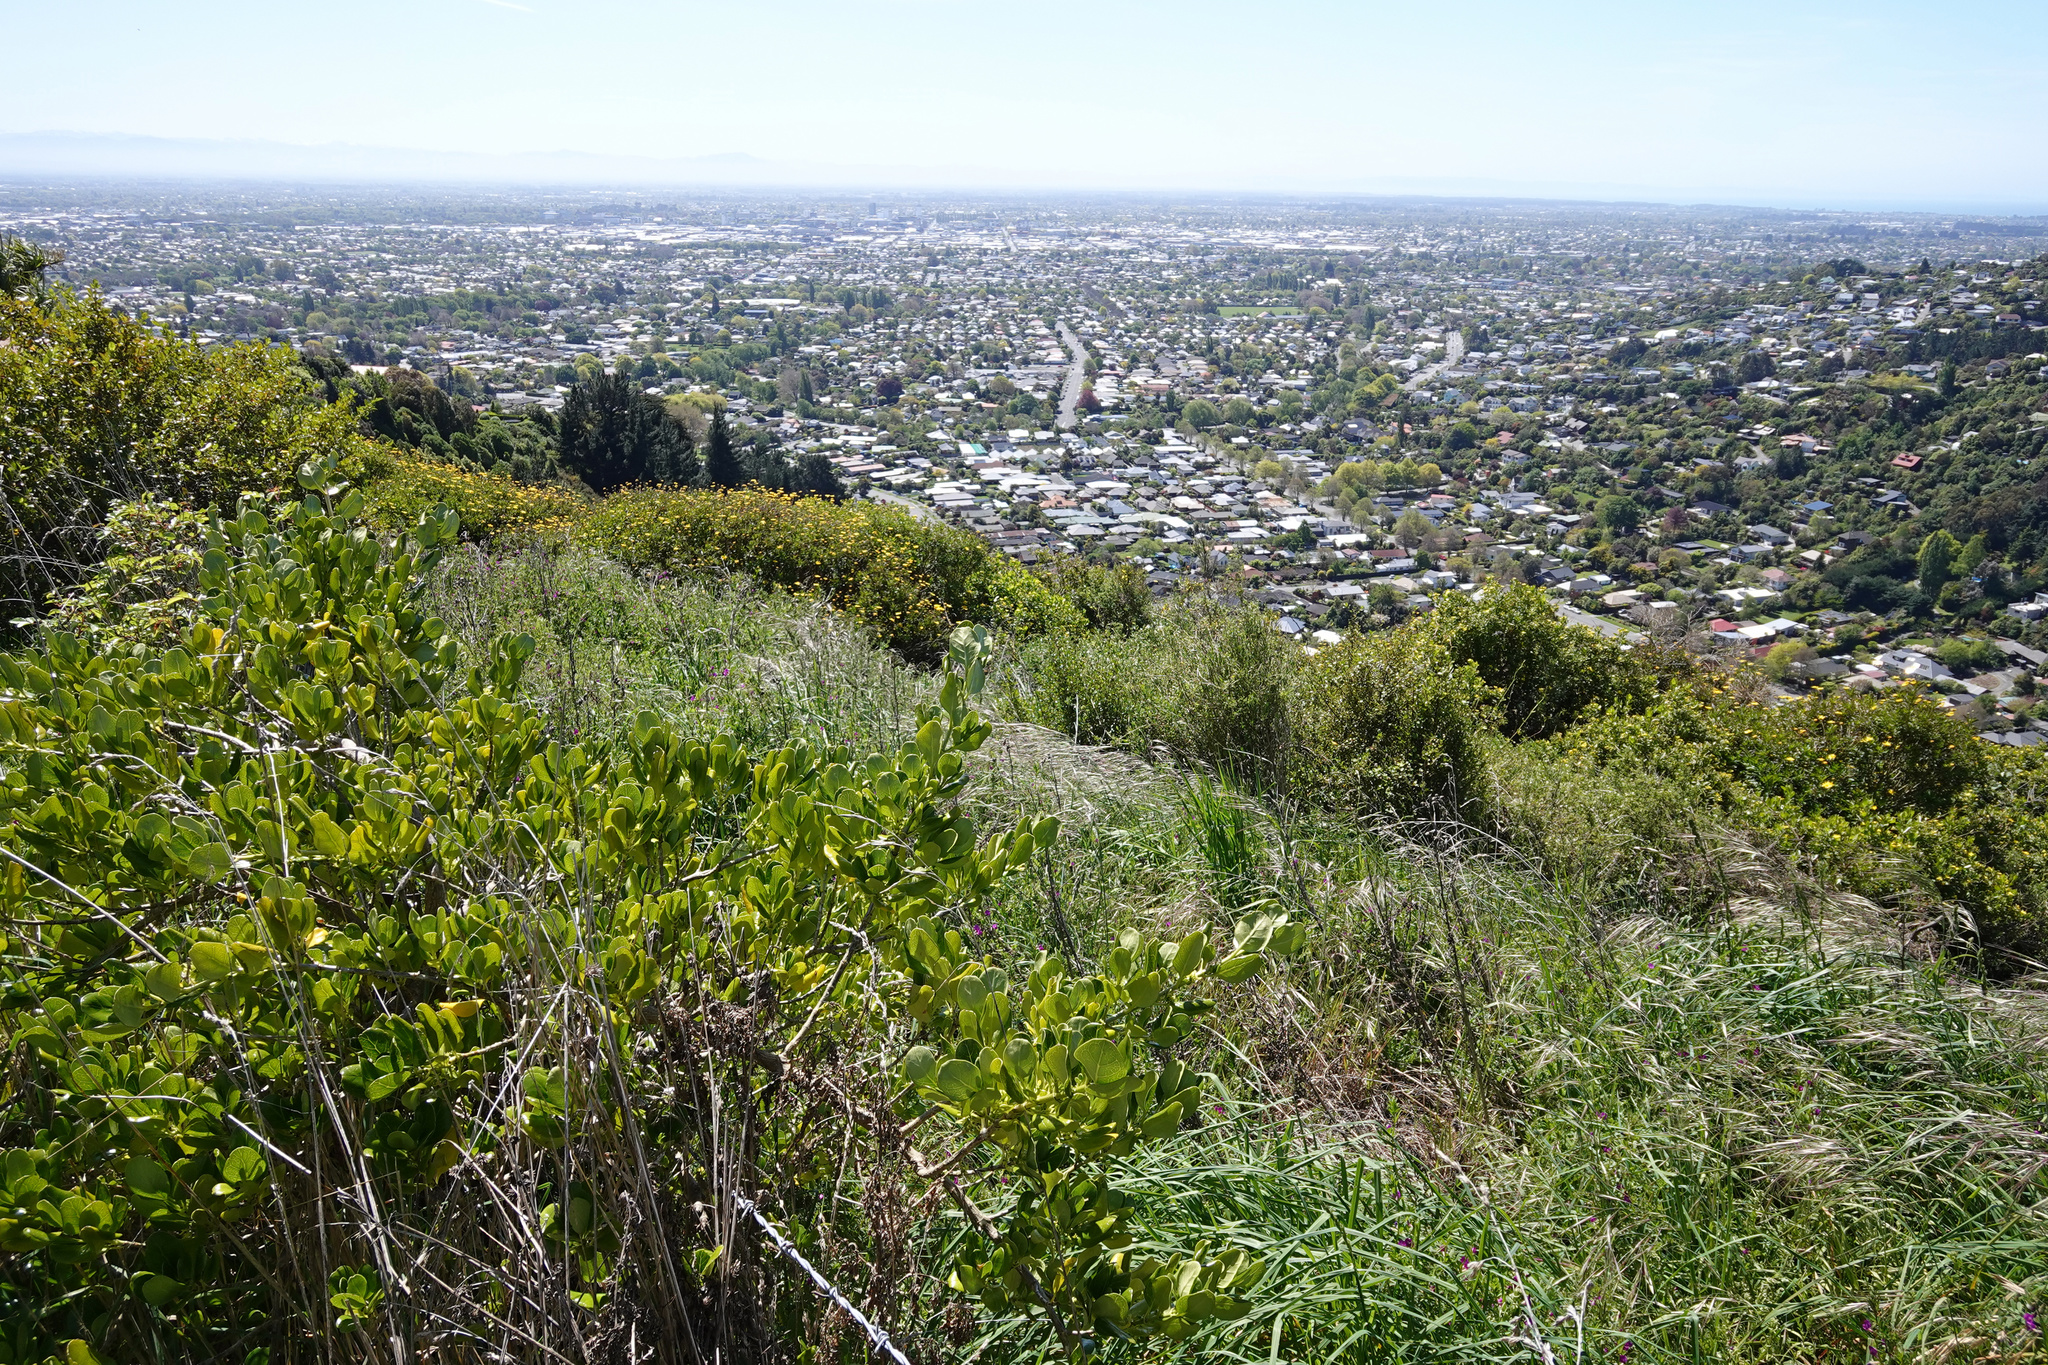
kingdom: Plantae
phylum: Tracheophyta
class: Magnoliopsida
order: Gentianales
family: Rubiaceae
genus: Coprosma
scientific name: Coprosma repens
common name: Tree bedstraw
